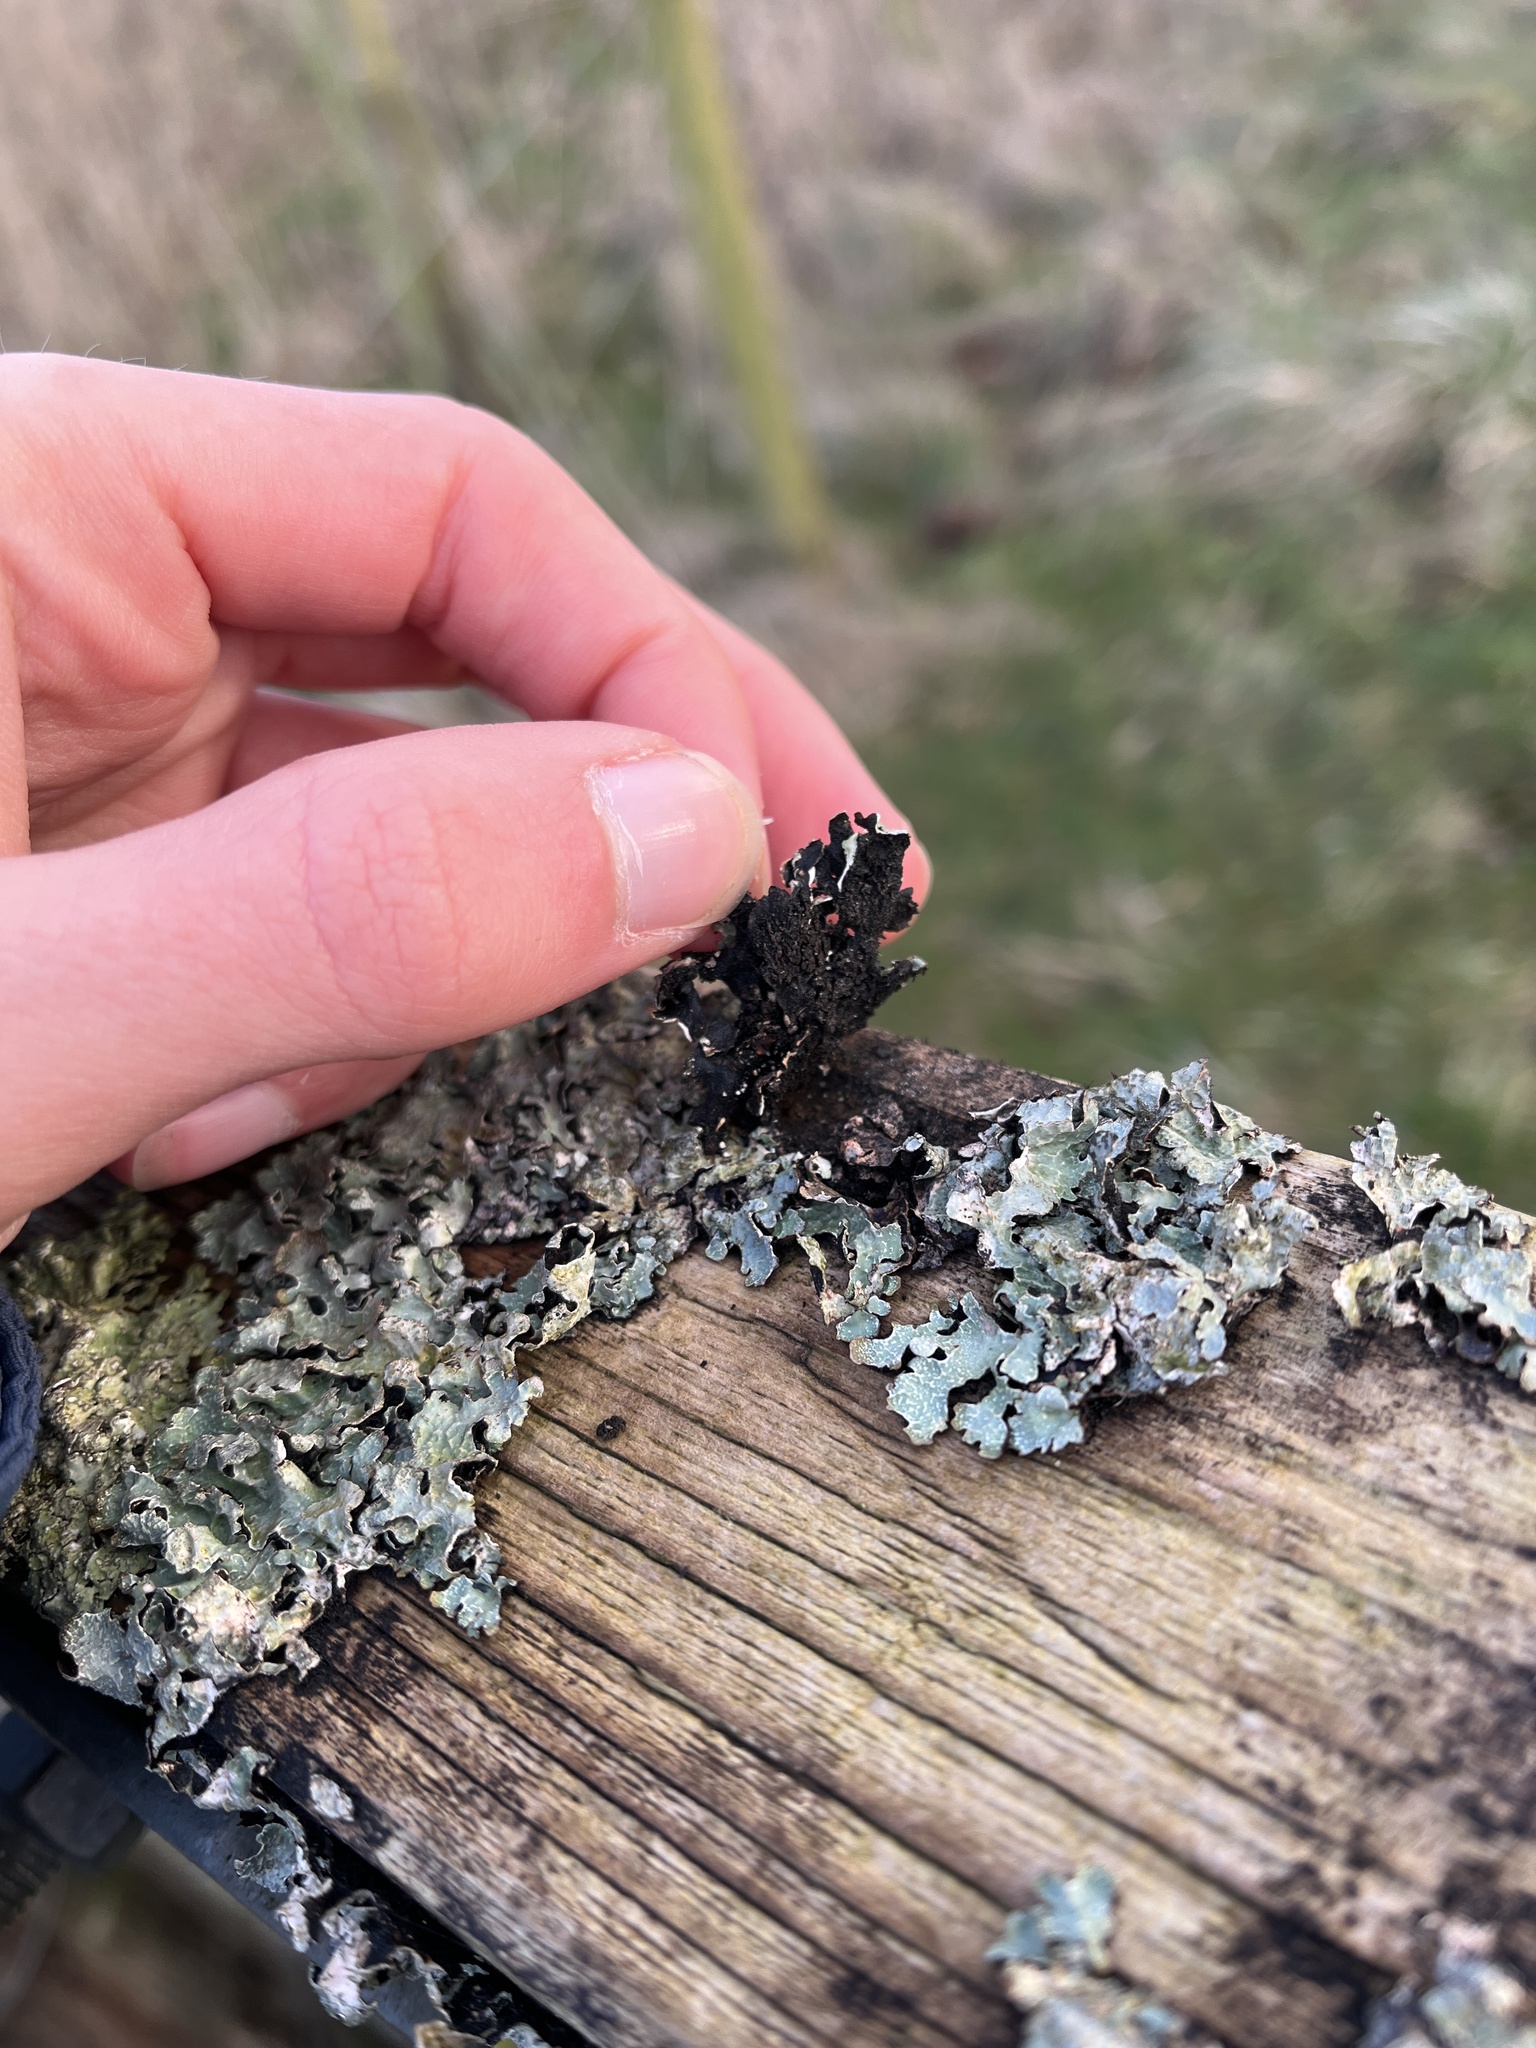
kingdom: Fungi
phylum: Ascomycota
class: Lecanoromycetes
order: Lecanorales
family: Parmeliaceae
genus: Parmelia
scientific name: Parmelia sulcata
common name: Netted shield lichen
